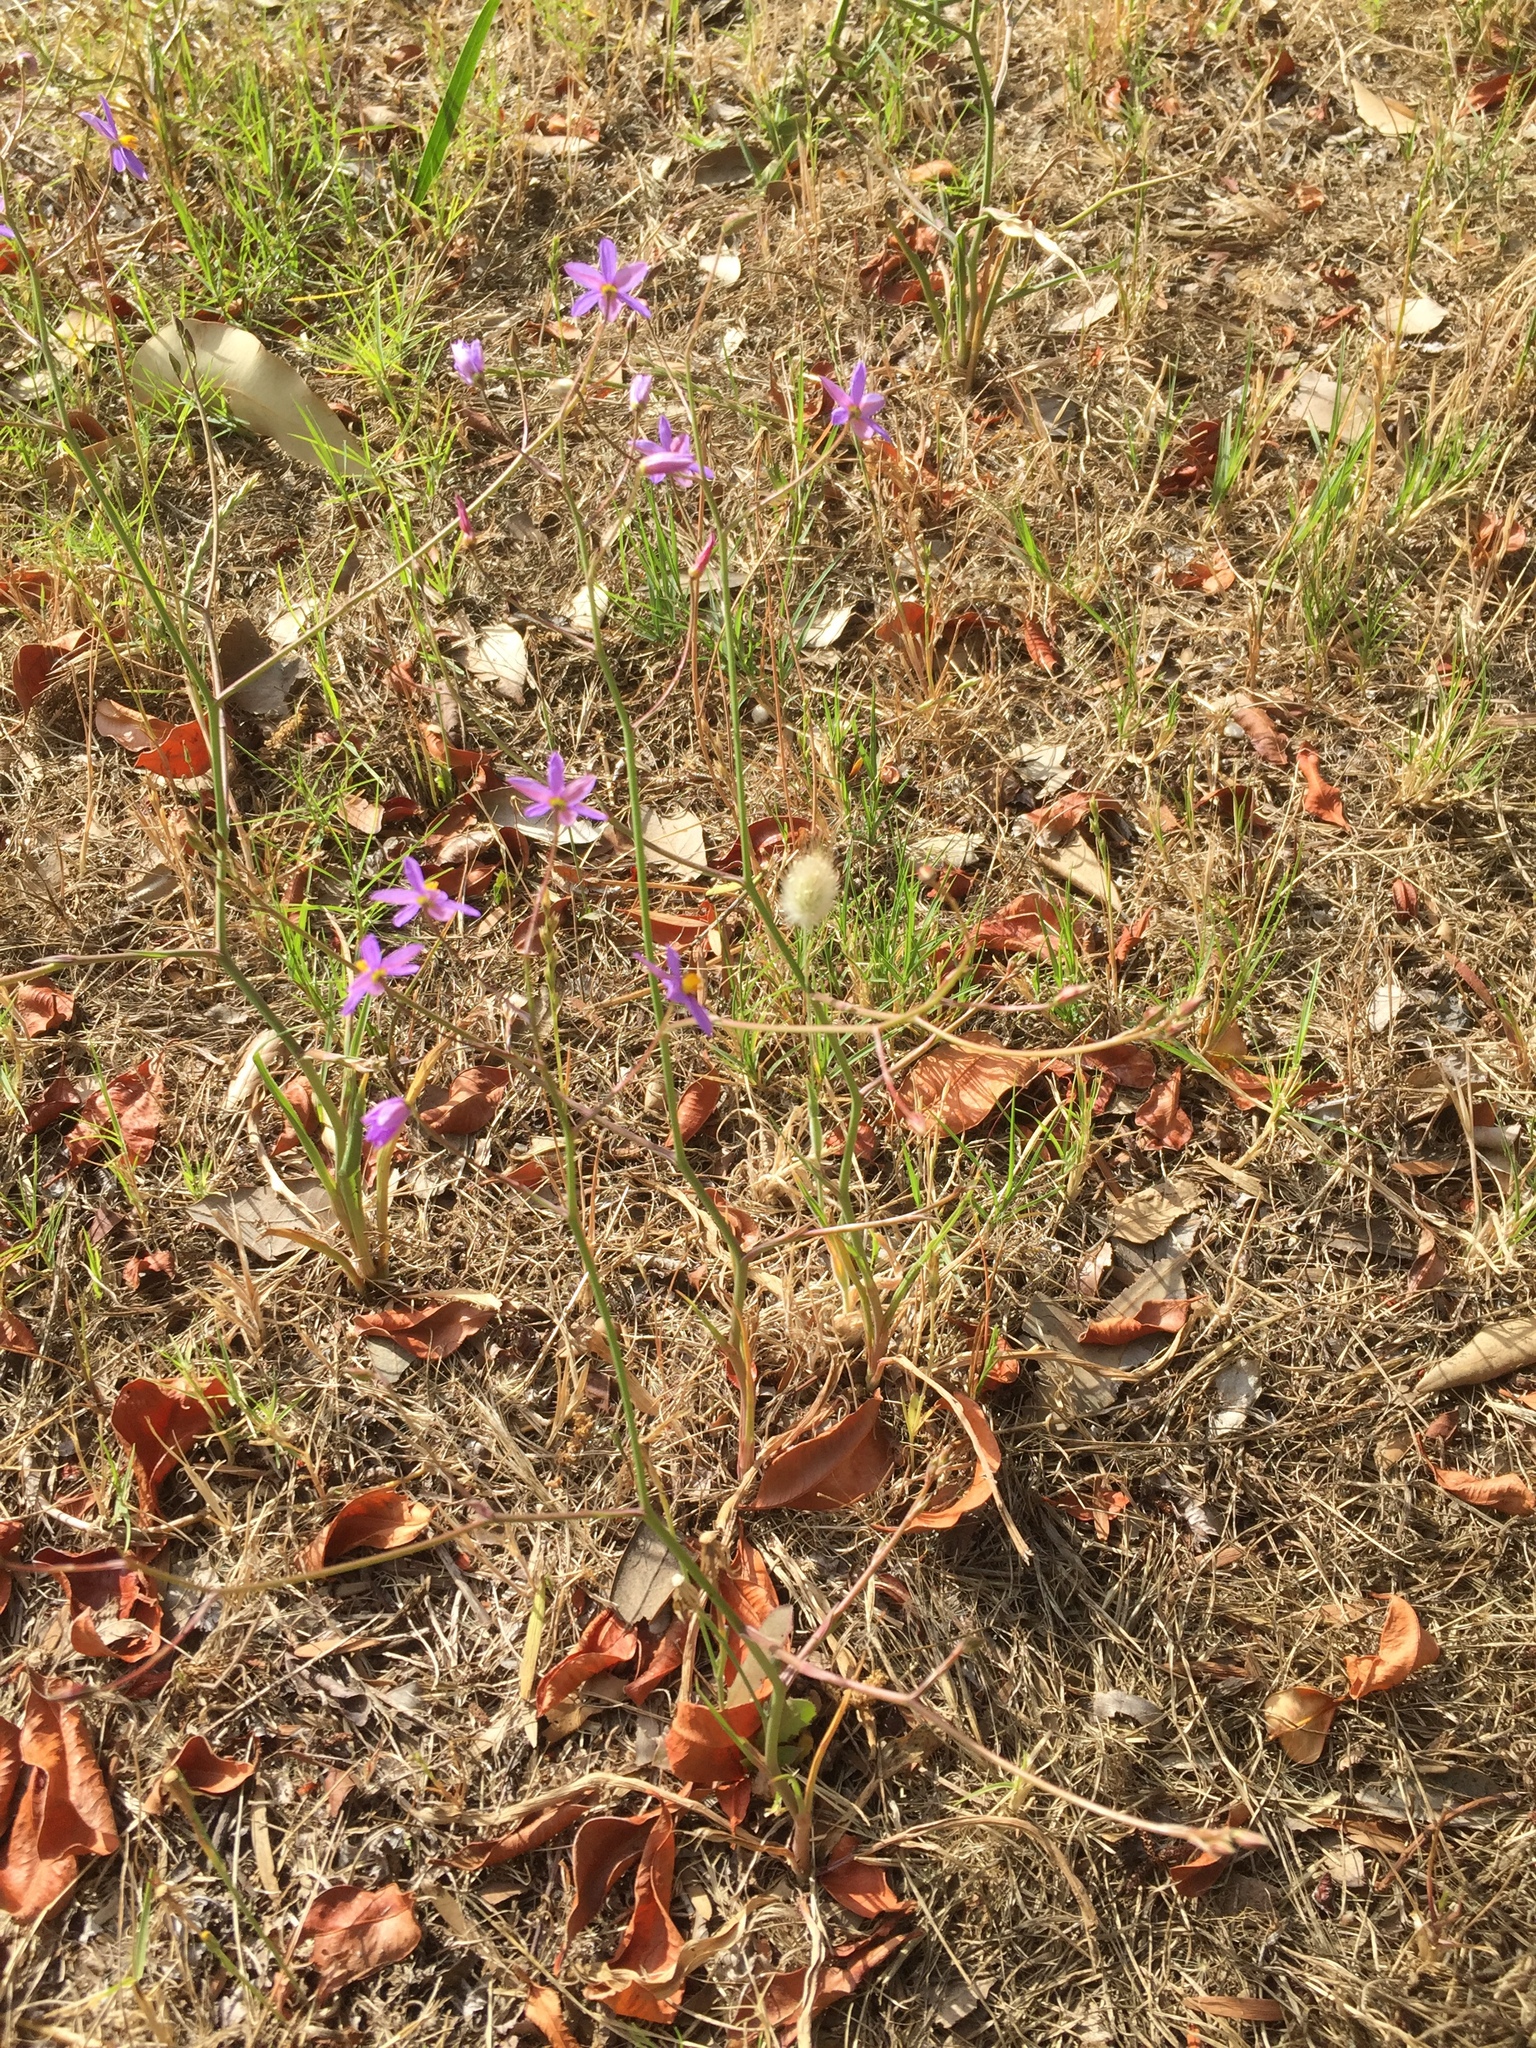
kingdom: Plantae
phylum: Tracheophyta
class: Liliopsida
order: Asparagales
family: Tecophilaeaceae
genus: Cyanella
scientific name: Cyanella hyacinthoides
